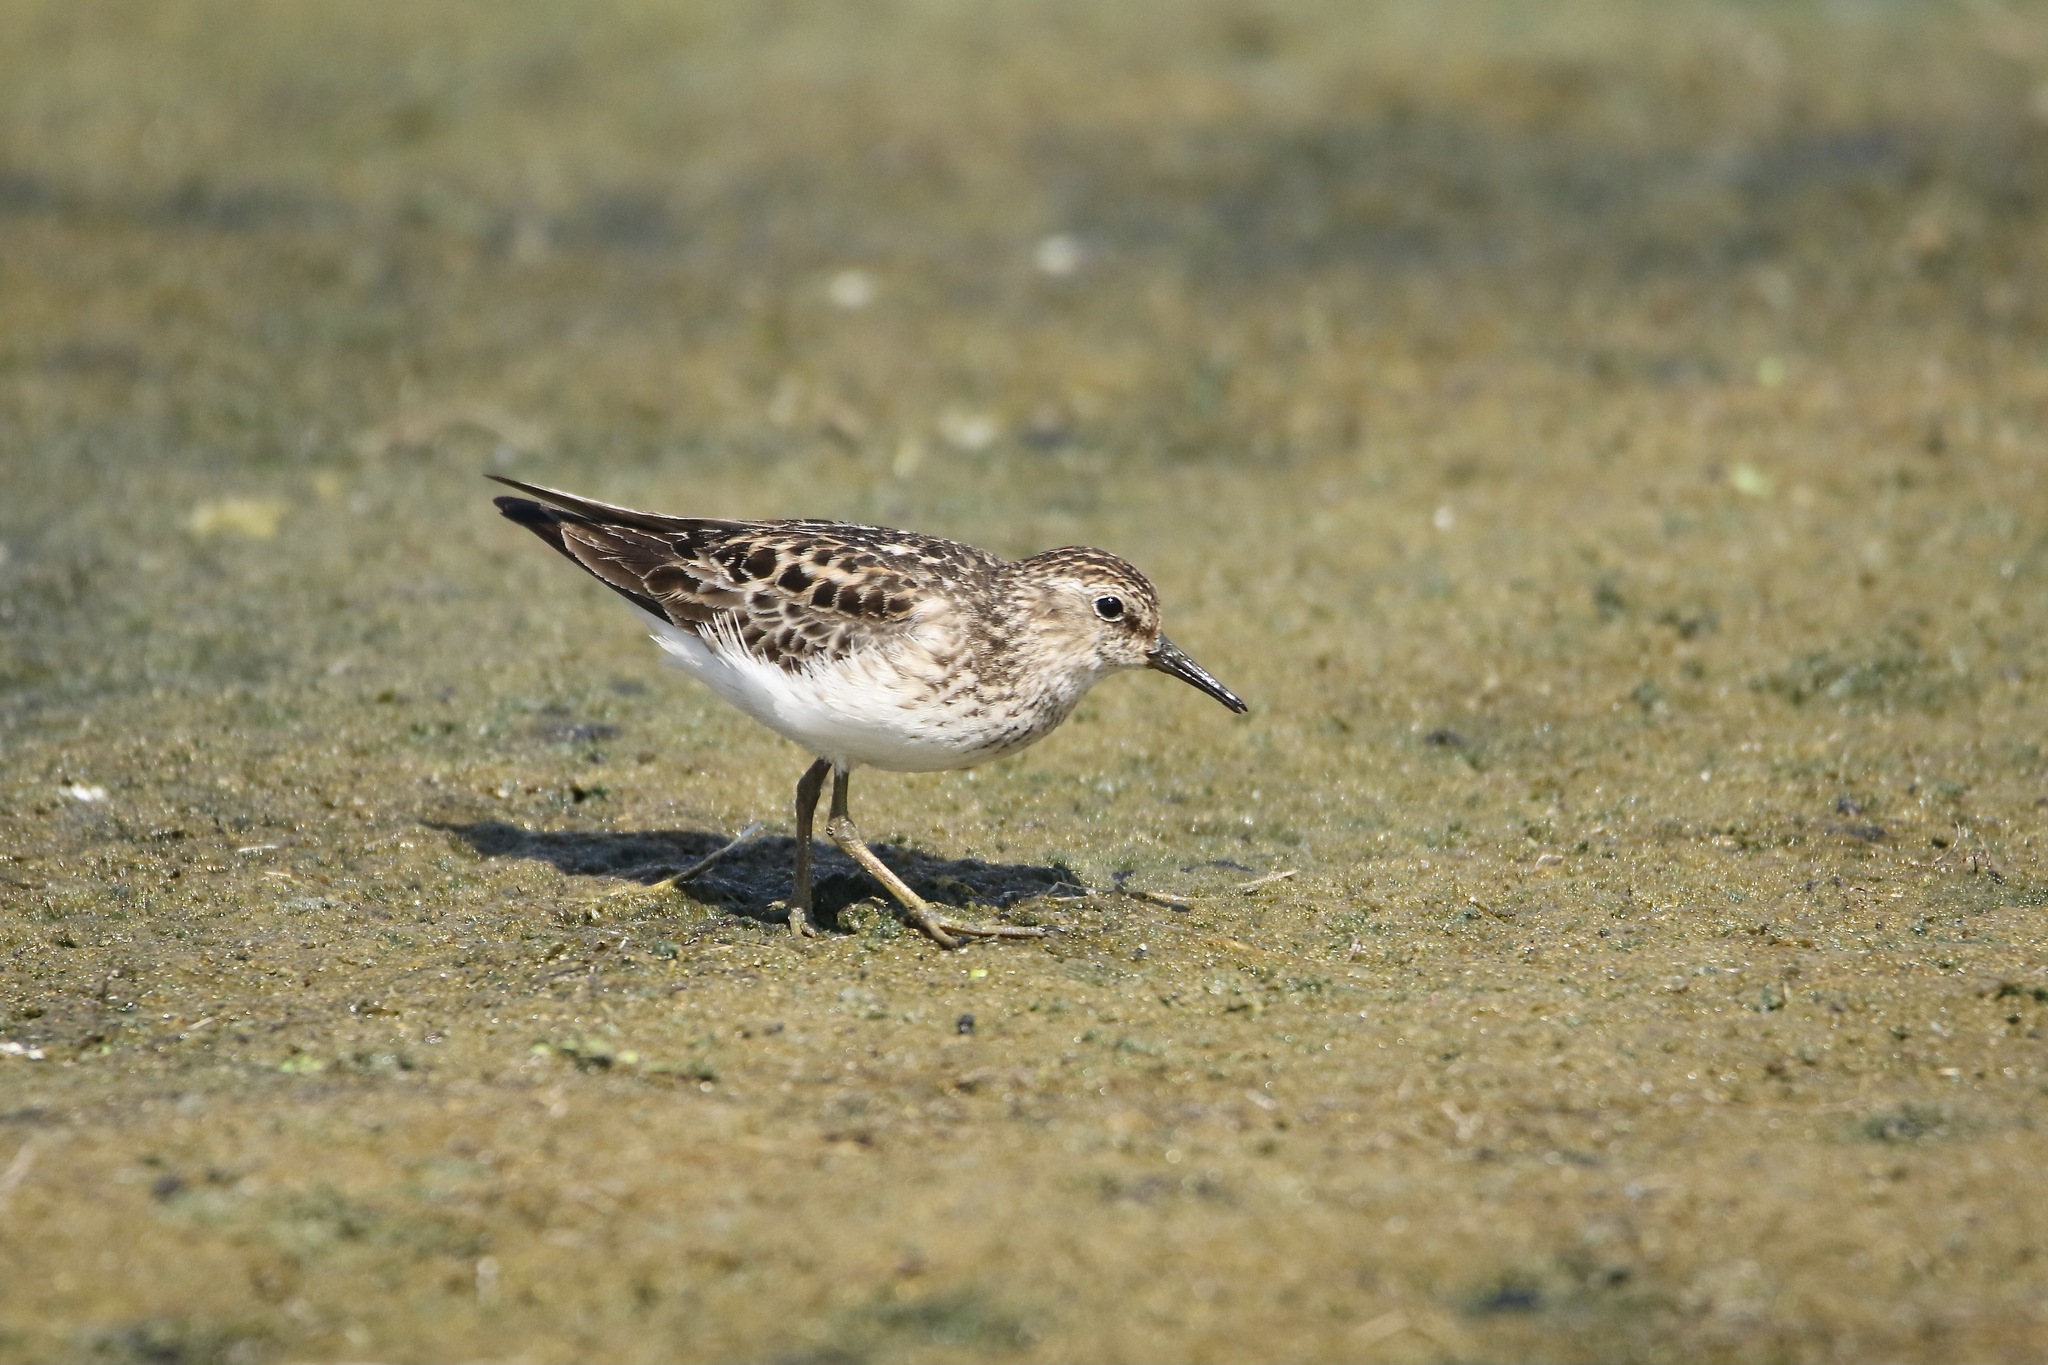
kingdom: Animalia
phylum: Chordata
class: Aves
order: Charadriiformes
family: Scolopacidae
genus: Calidris
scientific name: Calidris minutilla
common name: Least sandpiper
